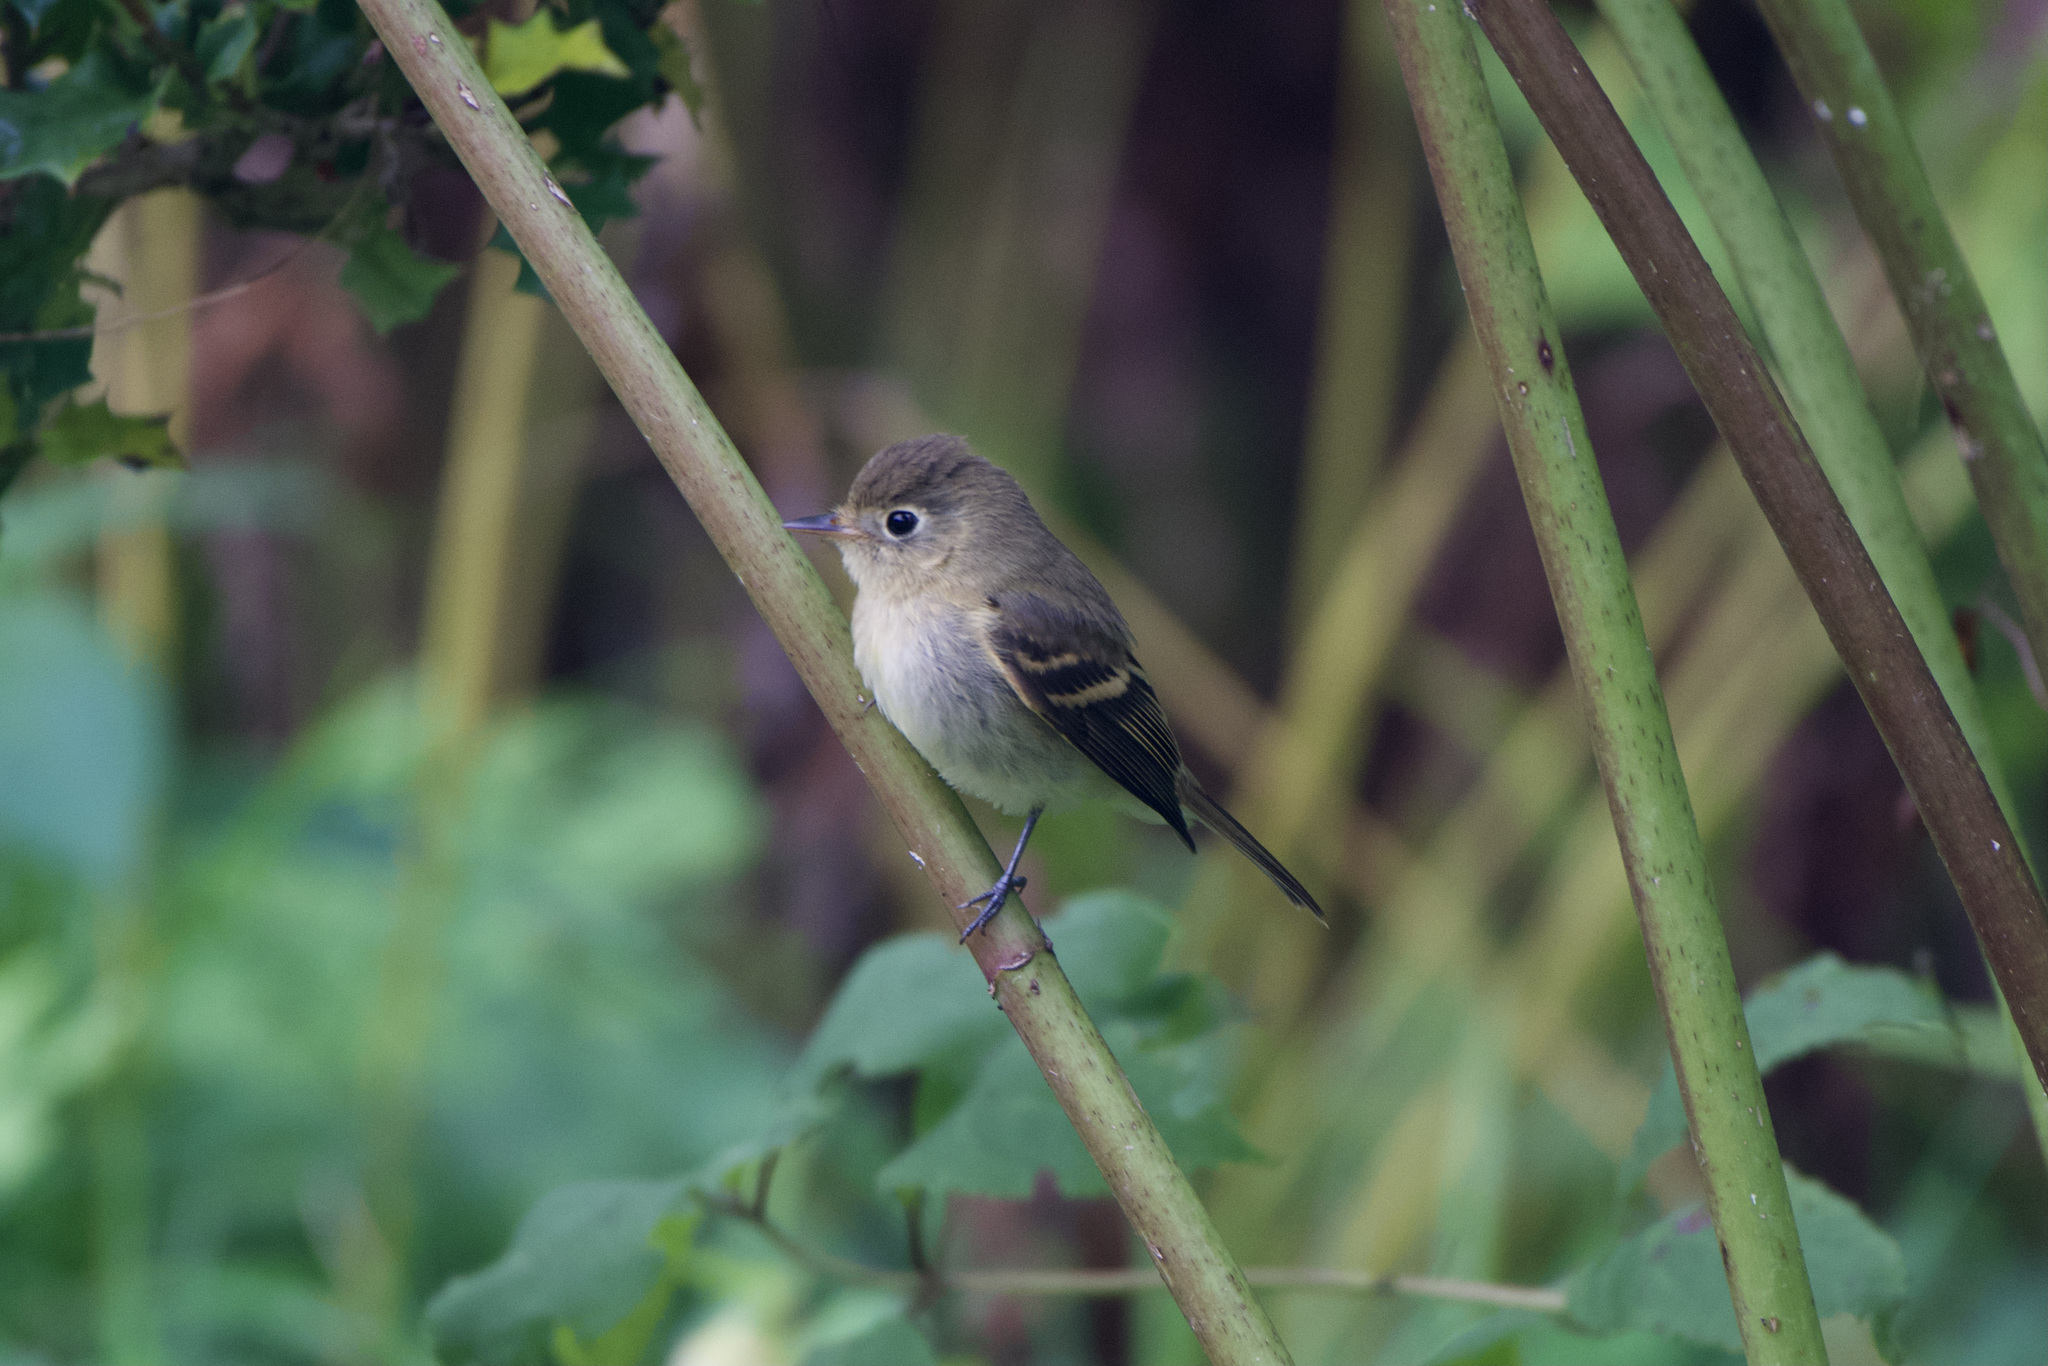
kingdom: Animalia
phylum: Chordata
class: Aves
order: Passeriformes
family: Tyrannidae
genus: Empidonax
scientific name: Empidonax difficilis
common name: Pacific-slope flycatcher
